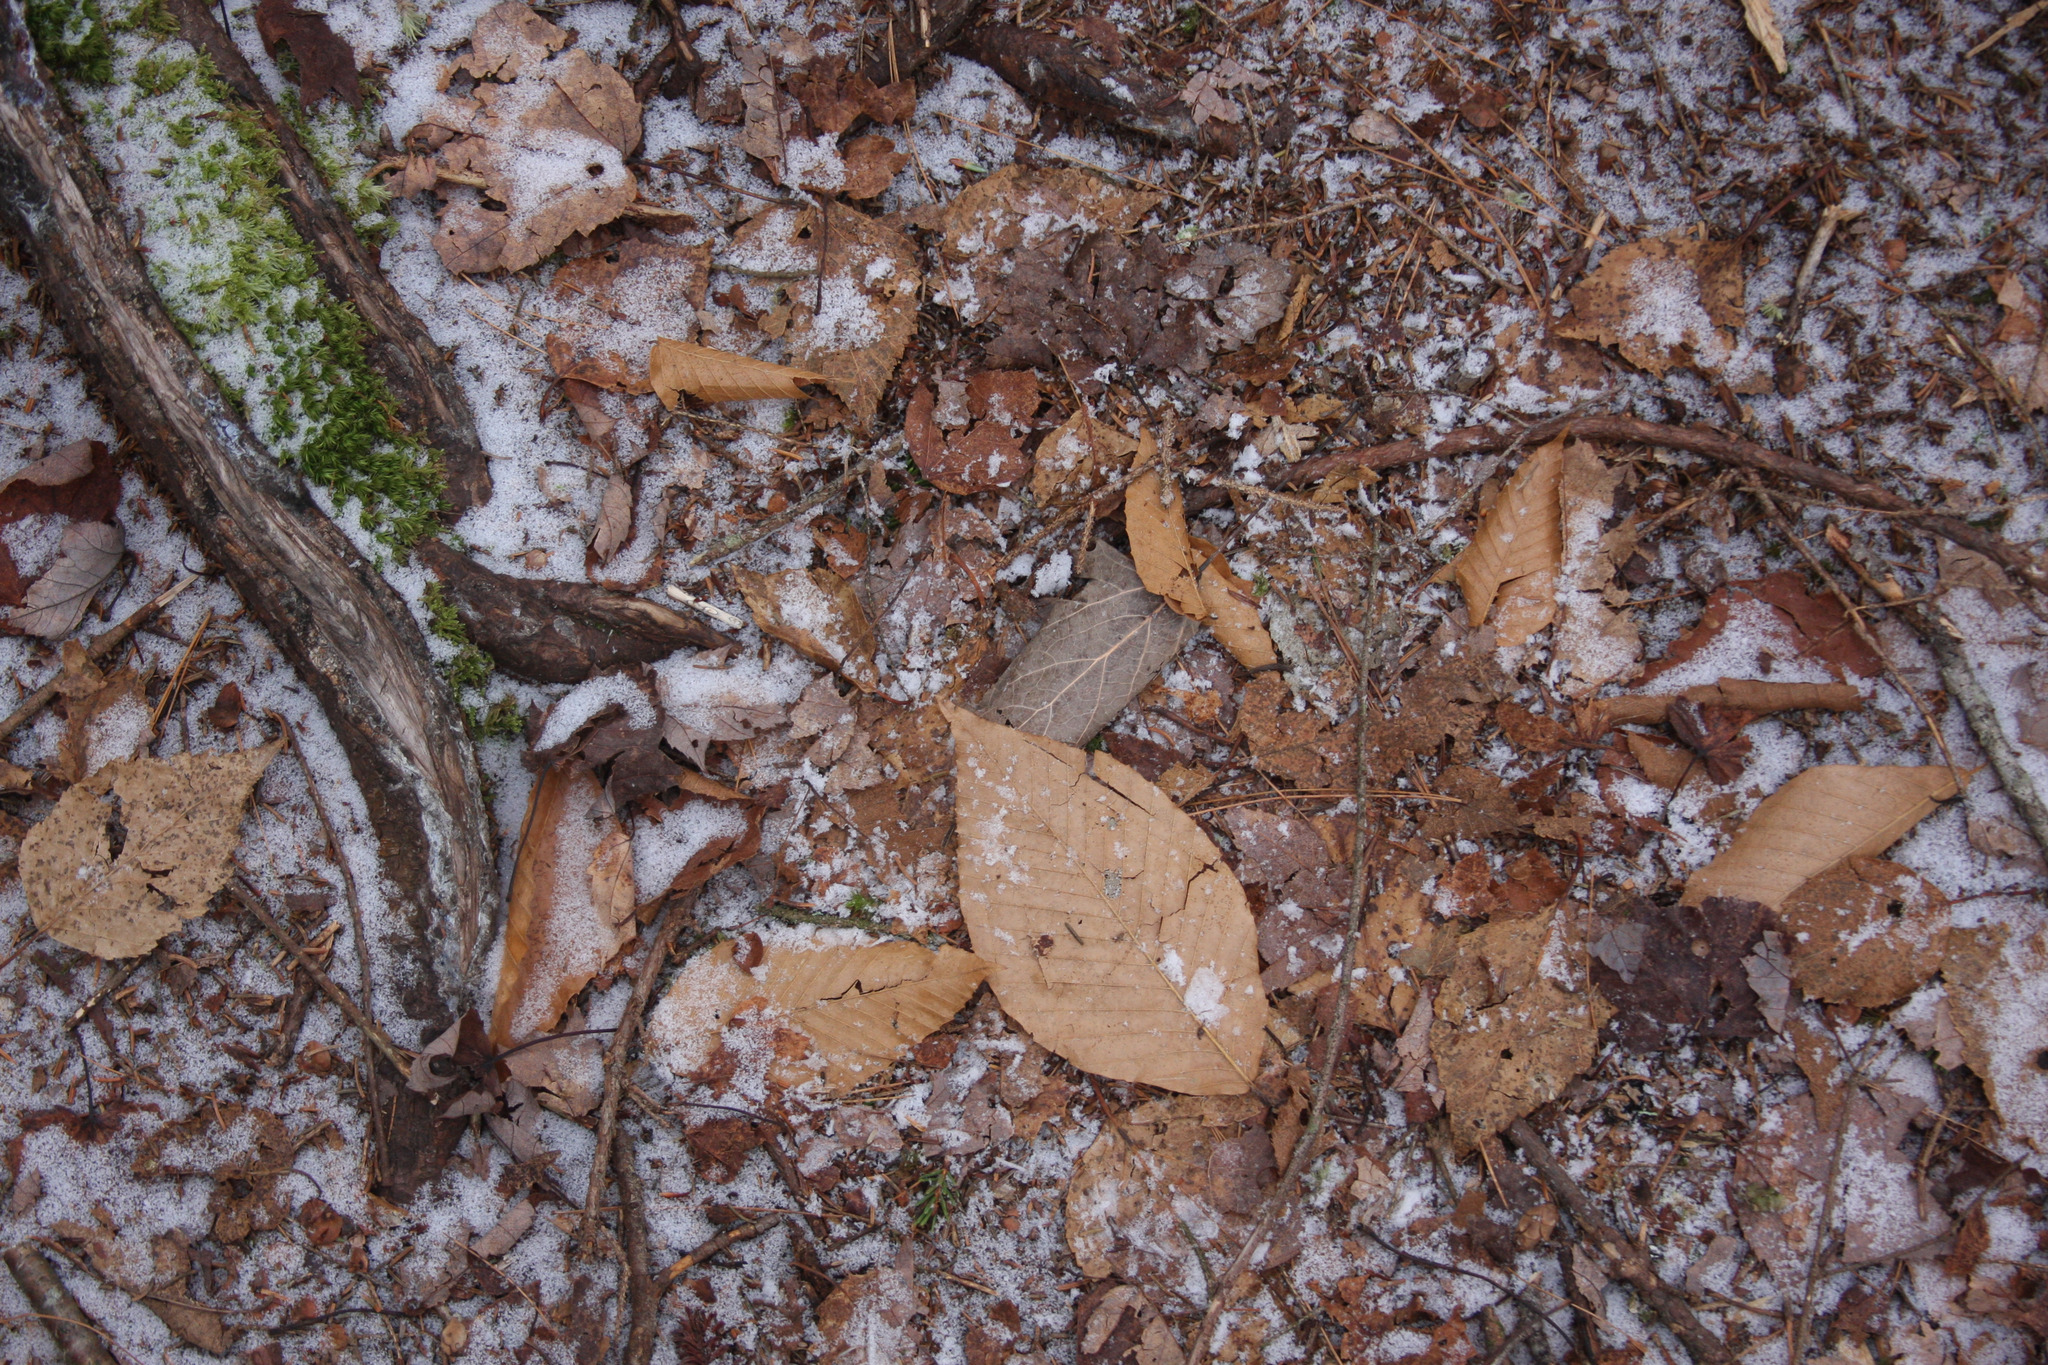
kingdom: Plantae
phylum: Tracheophyta
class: Magnoliopsida
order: Fagales
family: Fagaceae
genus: Fagus
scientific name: Fagus grandifolia
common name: American beech
